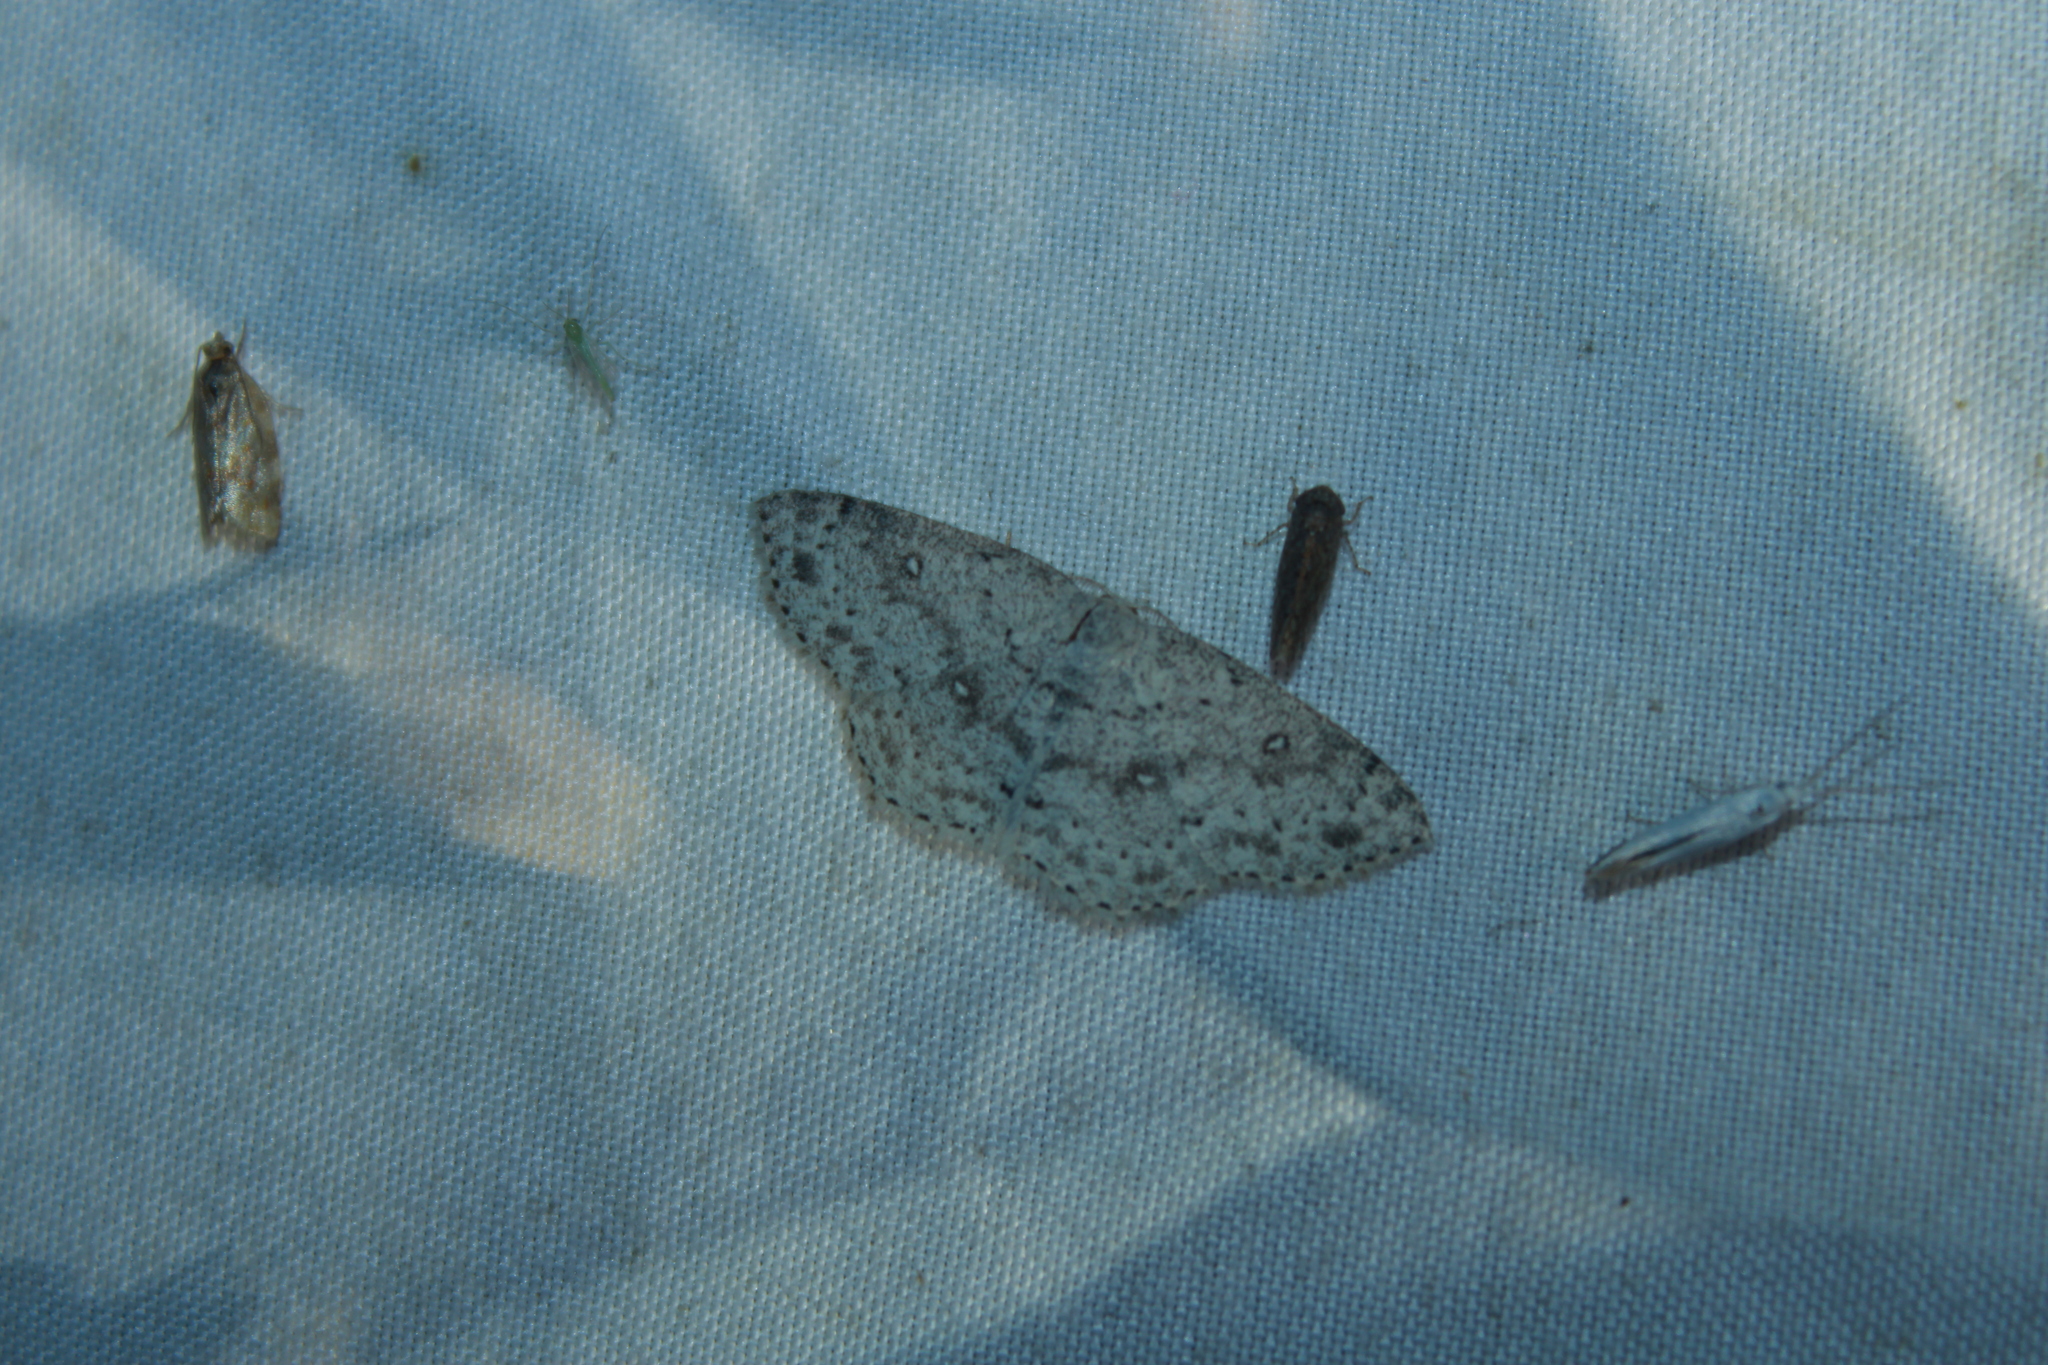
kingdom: Animalia
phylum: Arthropoda
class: Insecta
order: Lepidoptera
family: Geometridae
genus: Cyclophora
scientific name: Cyclophora pendulinaria
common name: Sweet fern geometer
